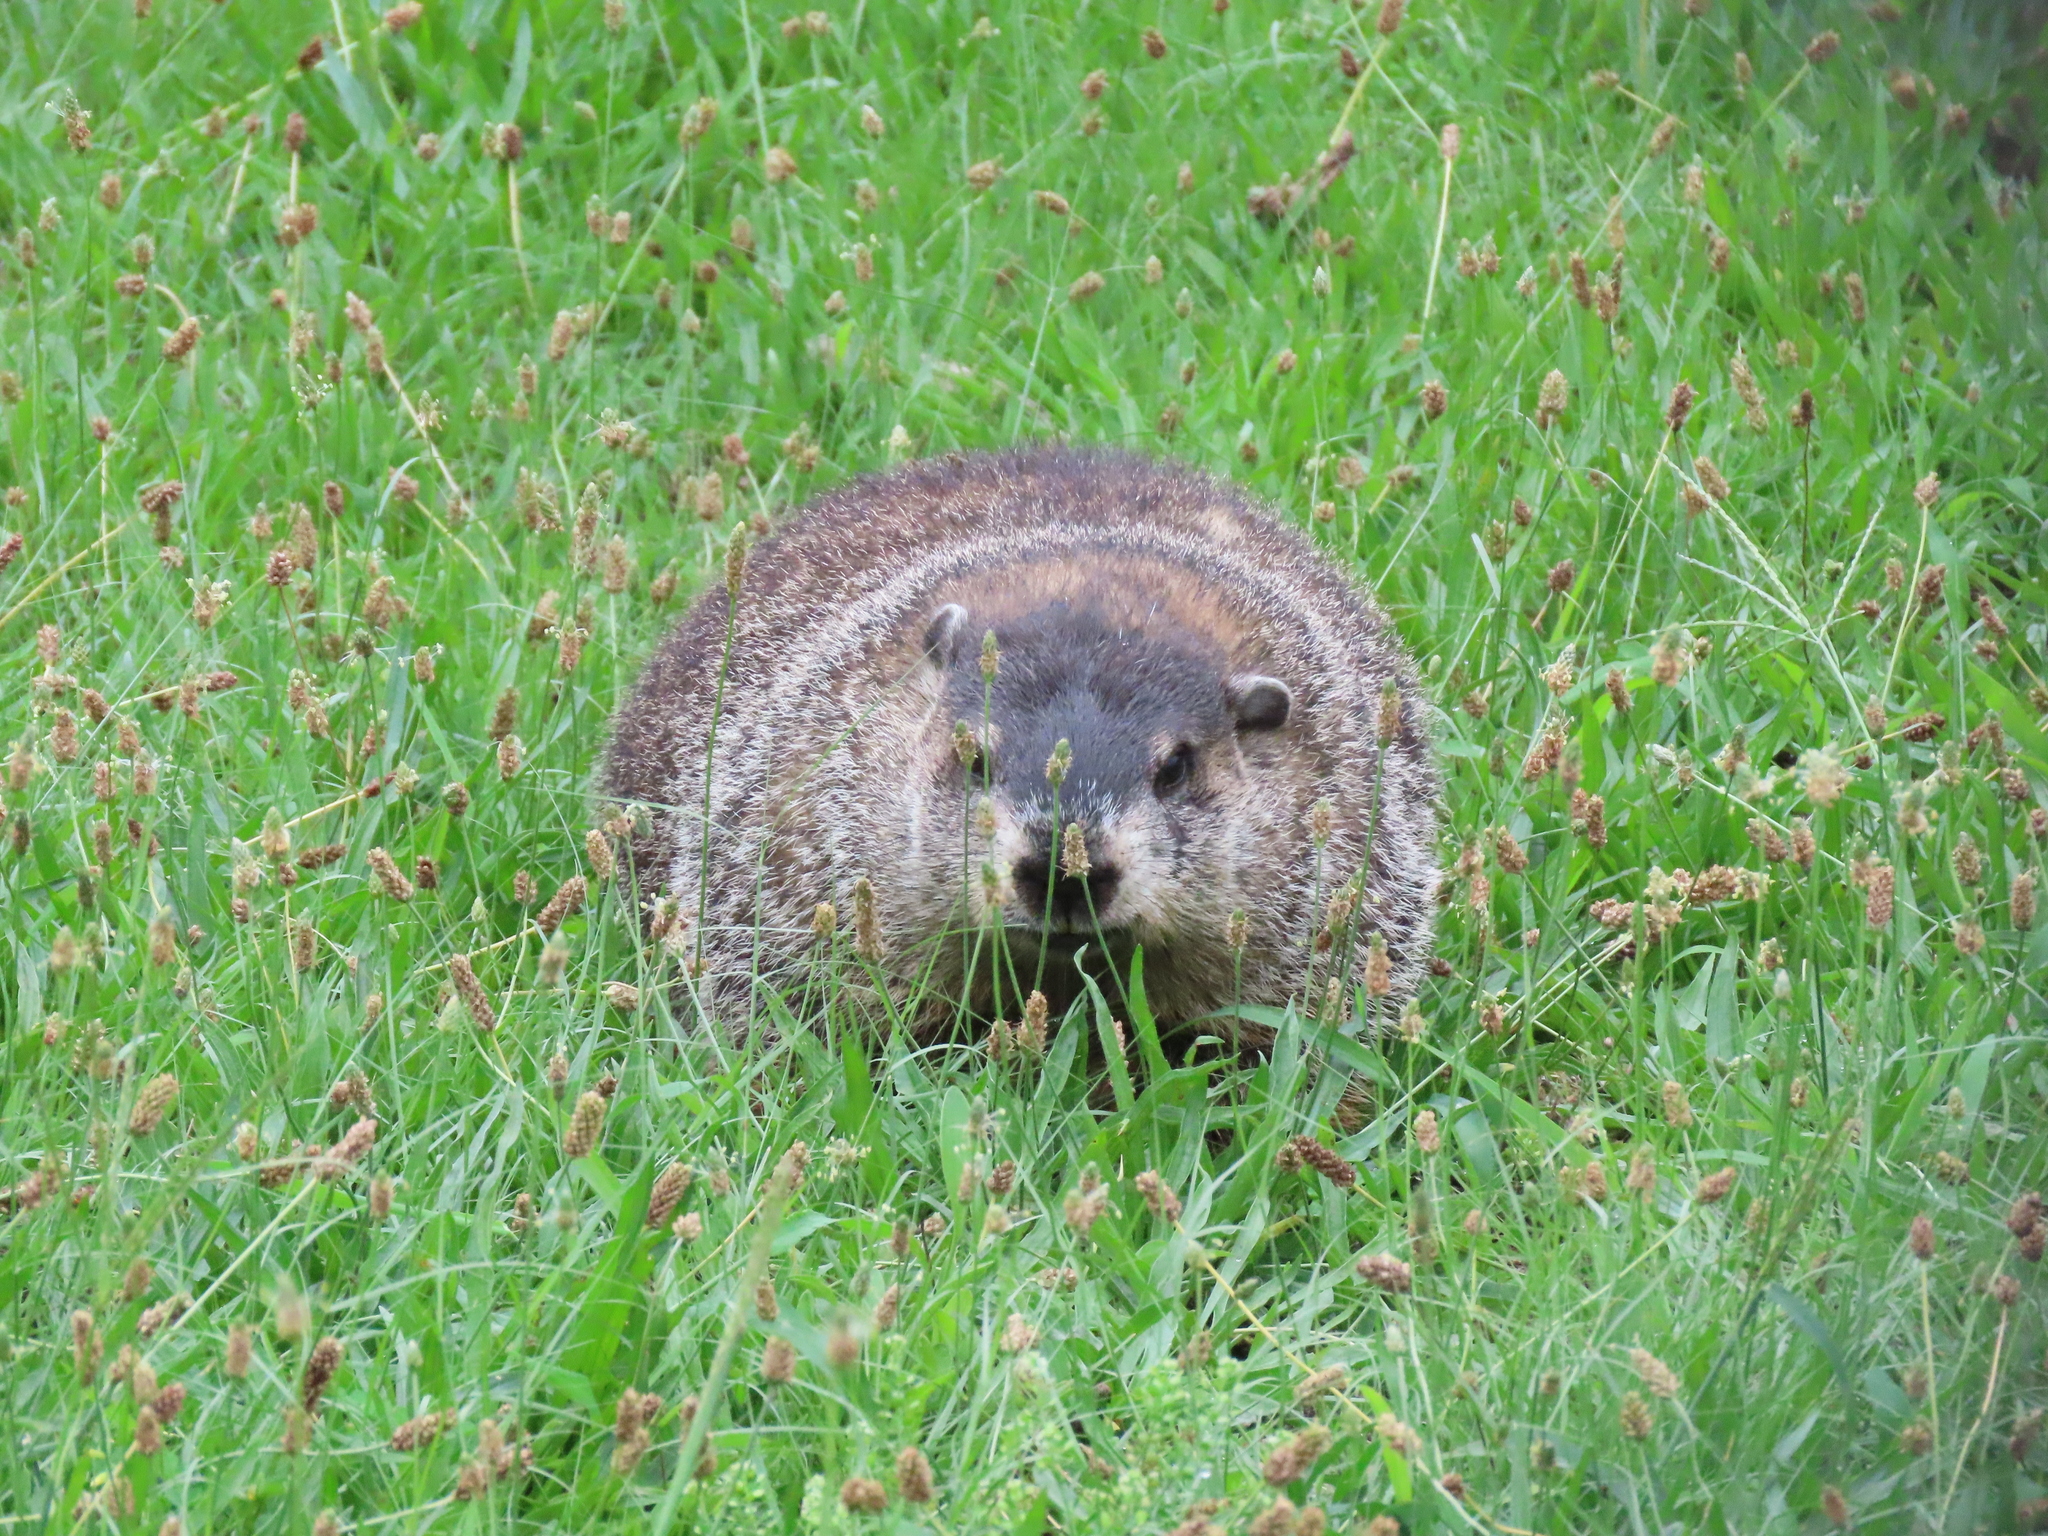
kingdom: Animalia
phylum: Chordata
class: Mammalia
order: Rodentia
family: Sciuridae
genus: Marmota
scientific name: Marmota monax
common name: Groundhog
